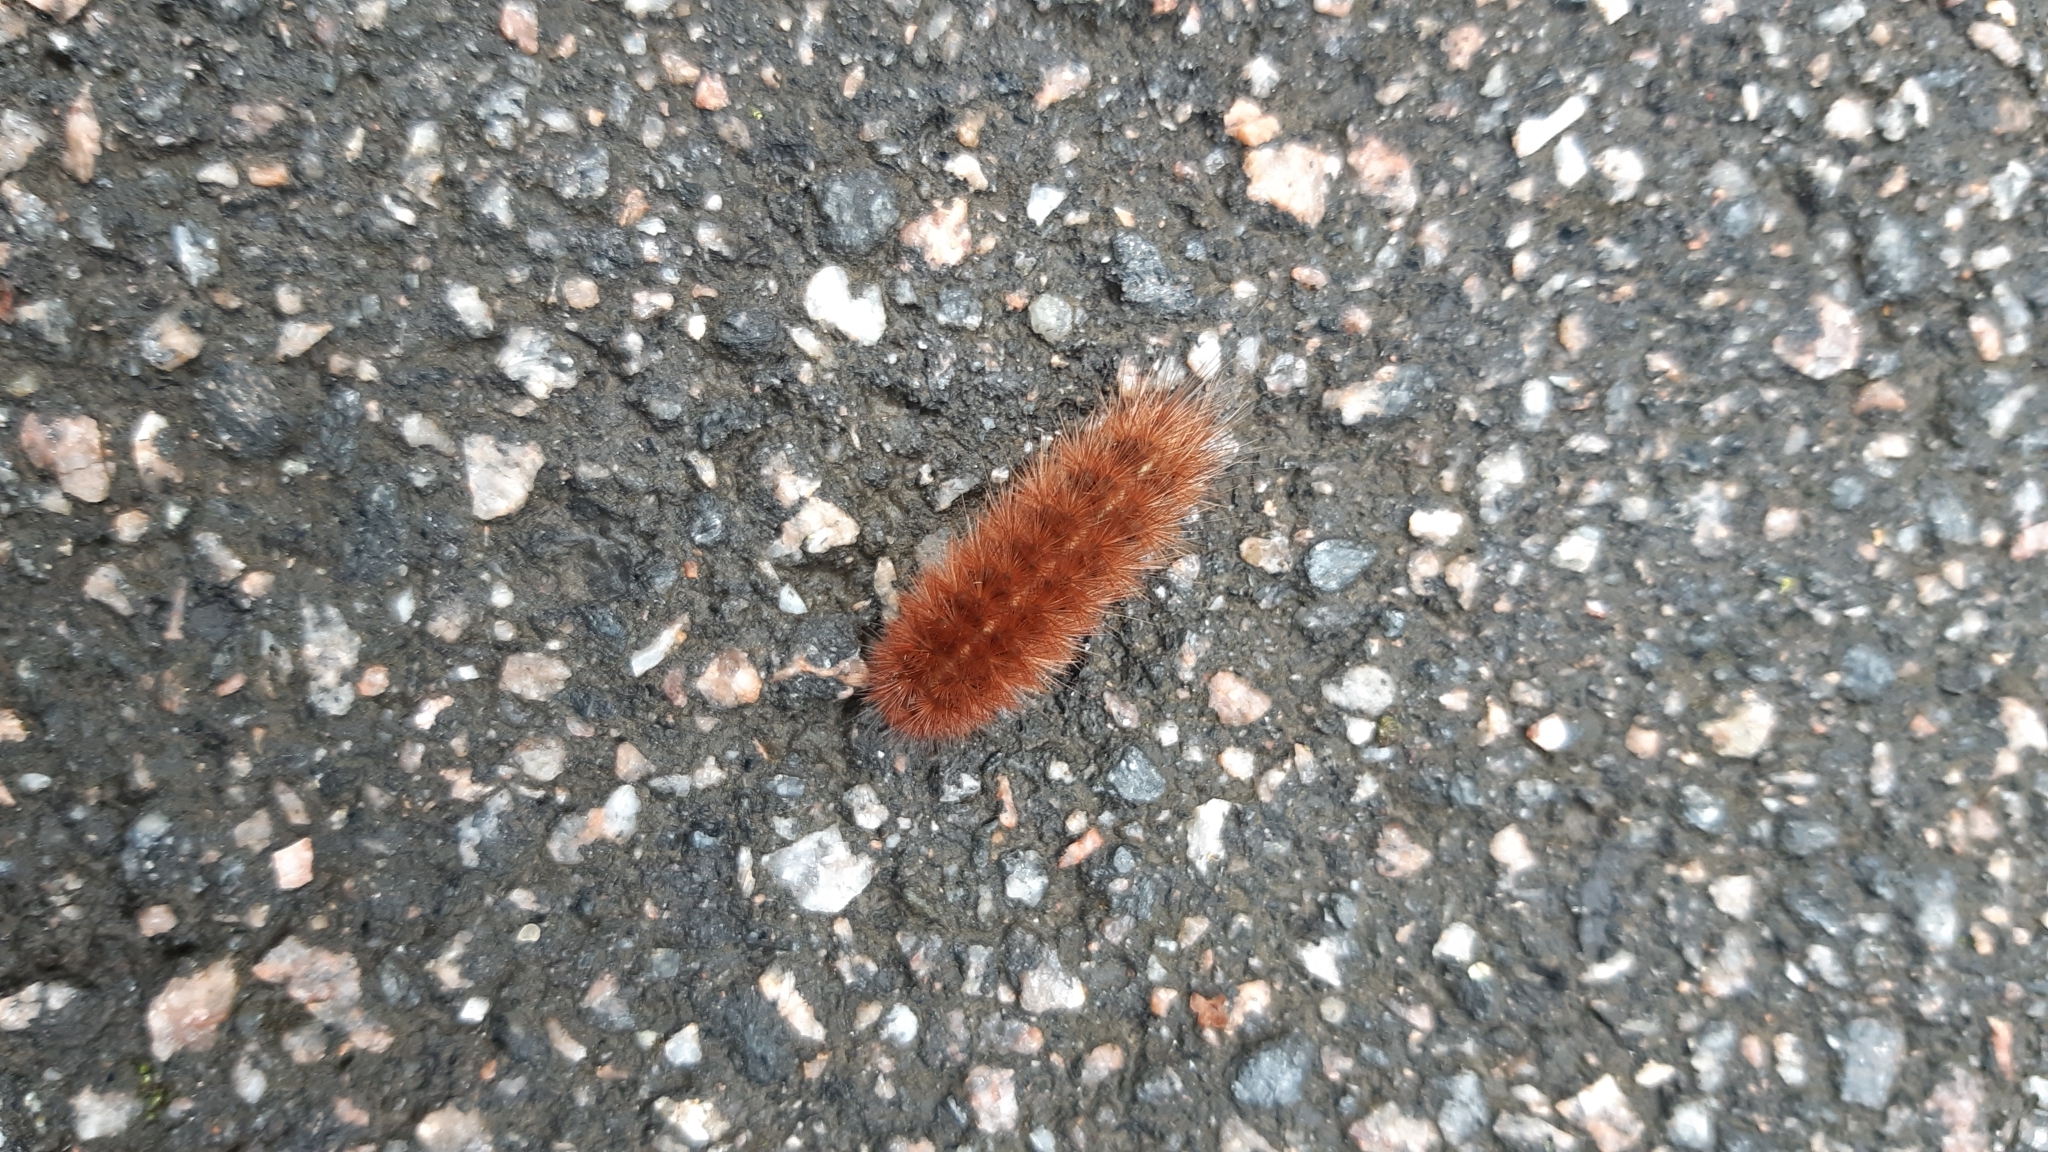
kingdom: Animalia
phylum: Arthropoda
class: Insecta
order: Lepidoptera
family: Erebidae
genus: Phragmatobia
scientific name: Phragmatobia fuliginosa
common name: Ruby tiger
